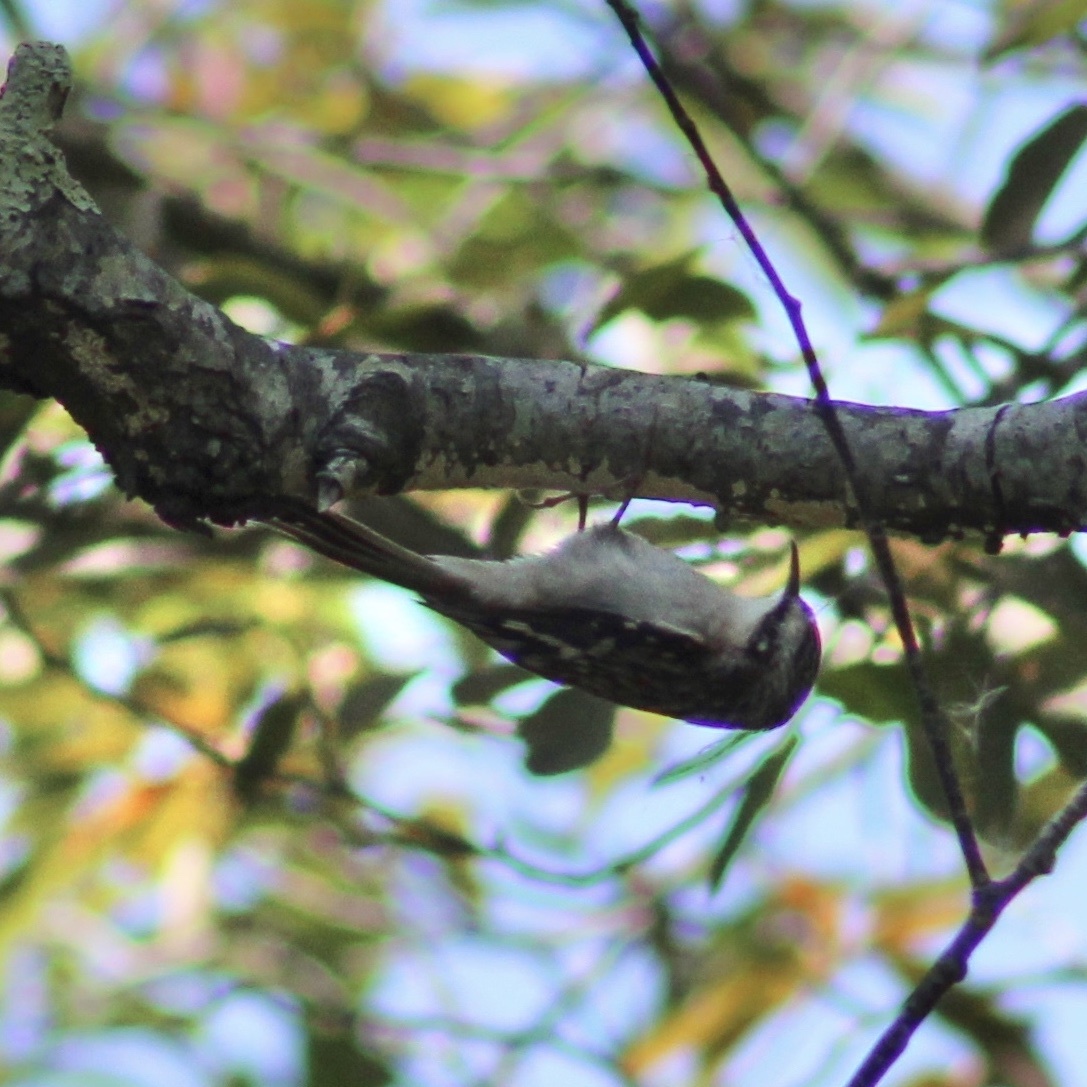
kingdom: Animalia
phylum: Chordata
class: Aves
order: Passeriformes
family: Certhiidae
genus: Certhia
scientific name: Certhia americana
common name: Brown creeper
